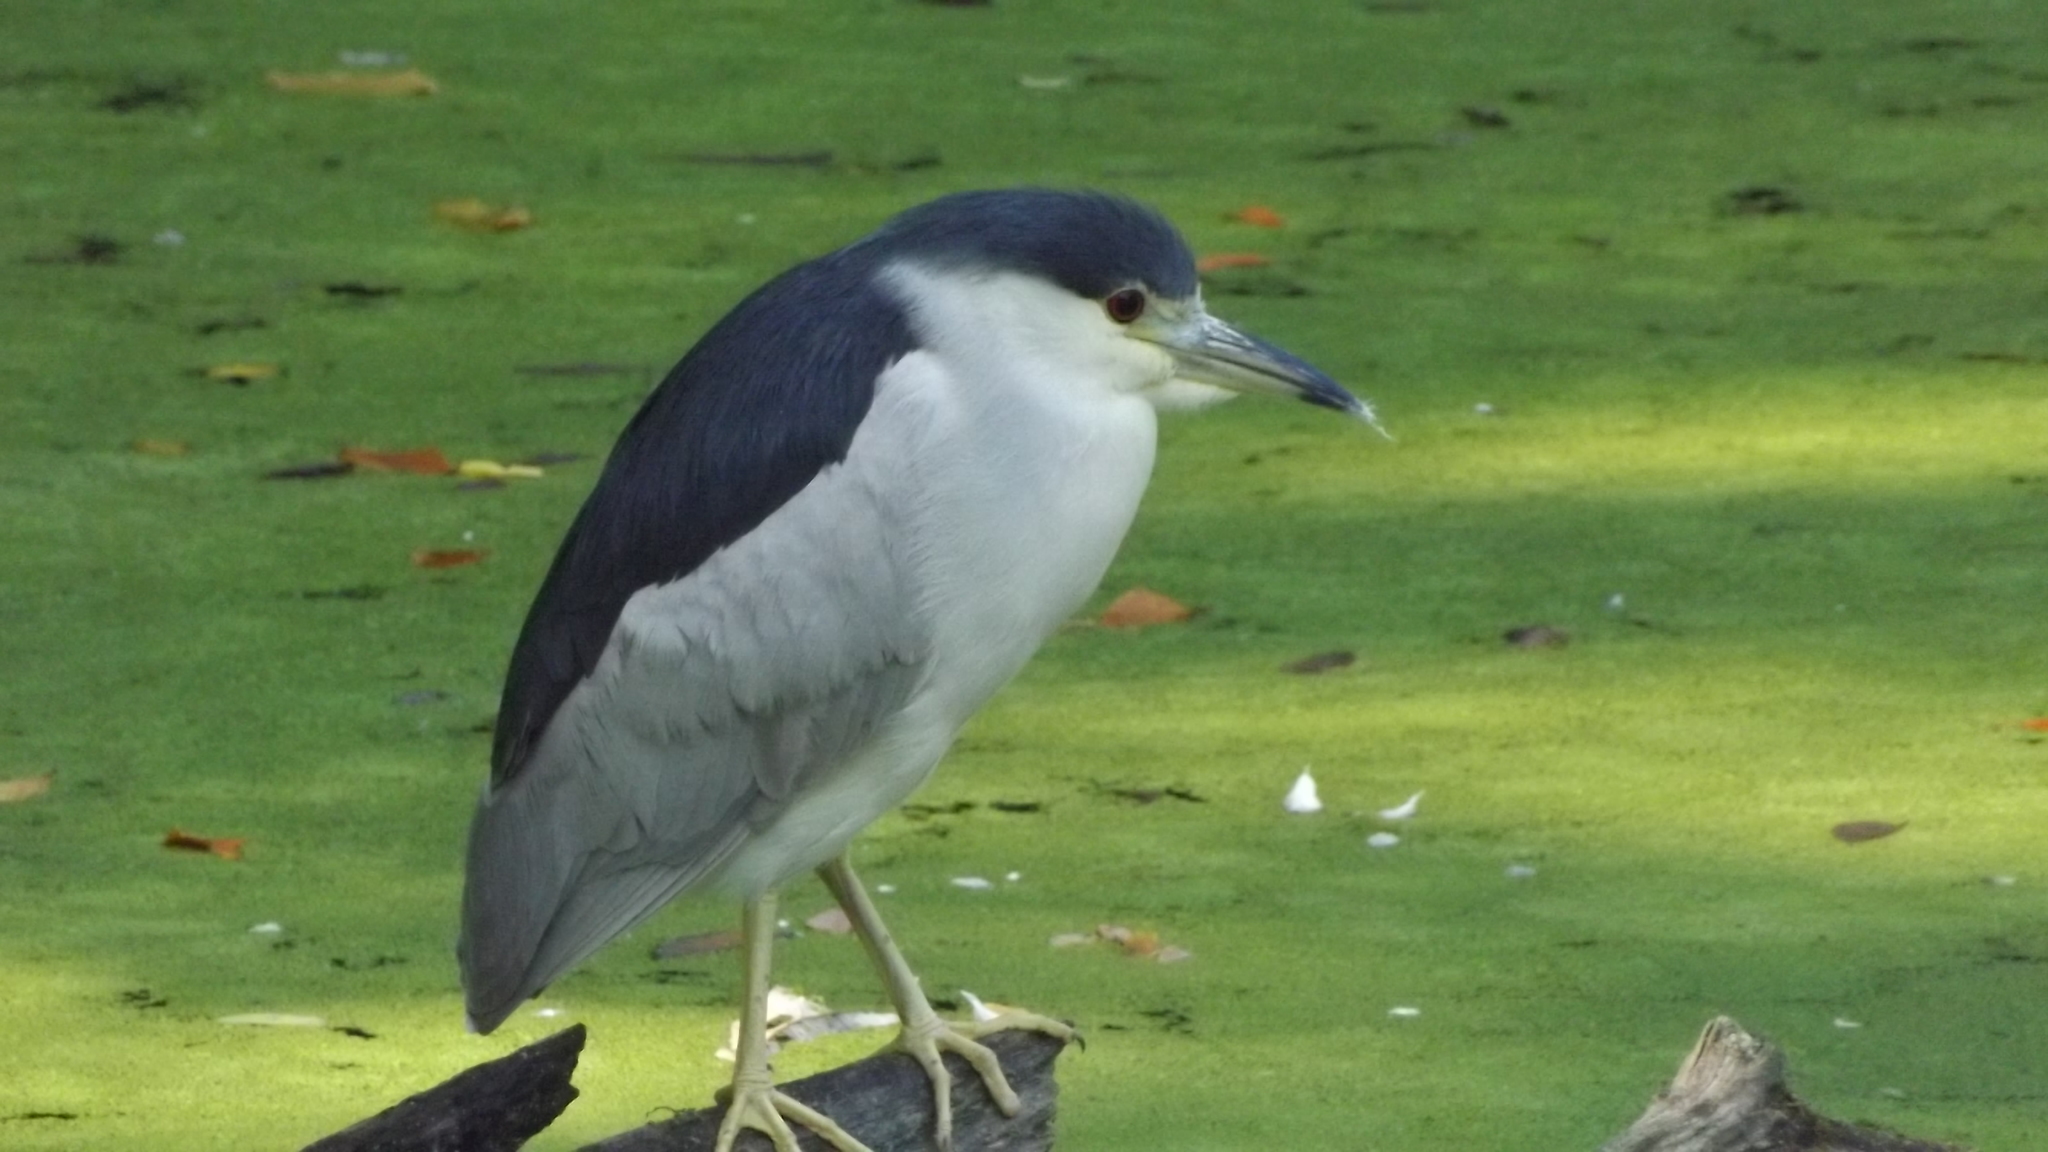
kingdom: Animalia
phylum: Chordata
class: Aves
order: Pelecaniformes
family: Ardeidae
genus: Nycticorax
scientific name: Nycticorax nycticorax
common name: Black-crowned night heron
